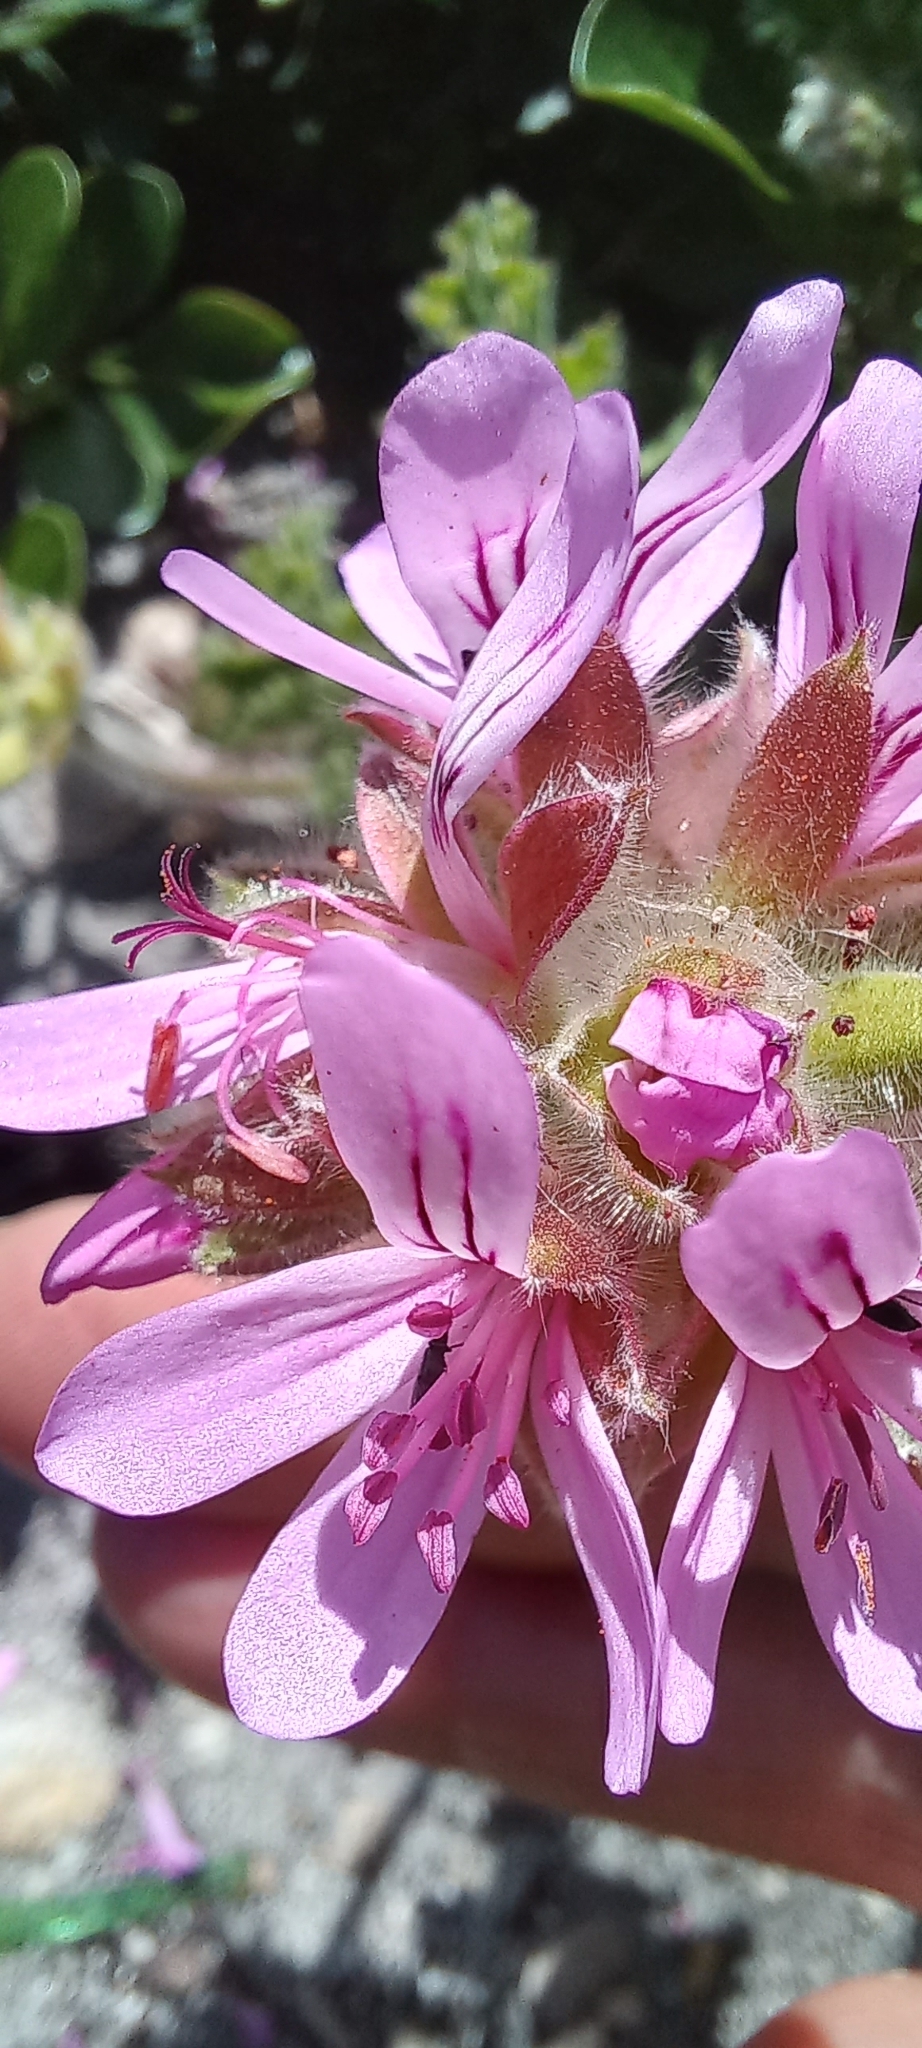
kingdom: Plantae
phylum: Tracheophyta
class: Magnoliopsida
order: Geraniales
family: Geraniaceae
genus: Pelargonium
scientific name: Pelargonium capitatum
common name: Rose scented geranium
